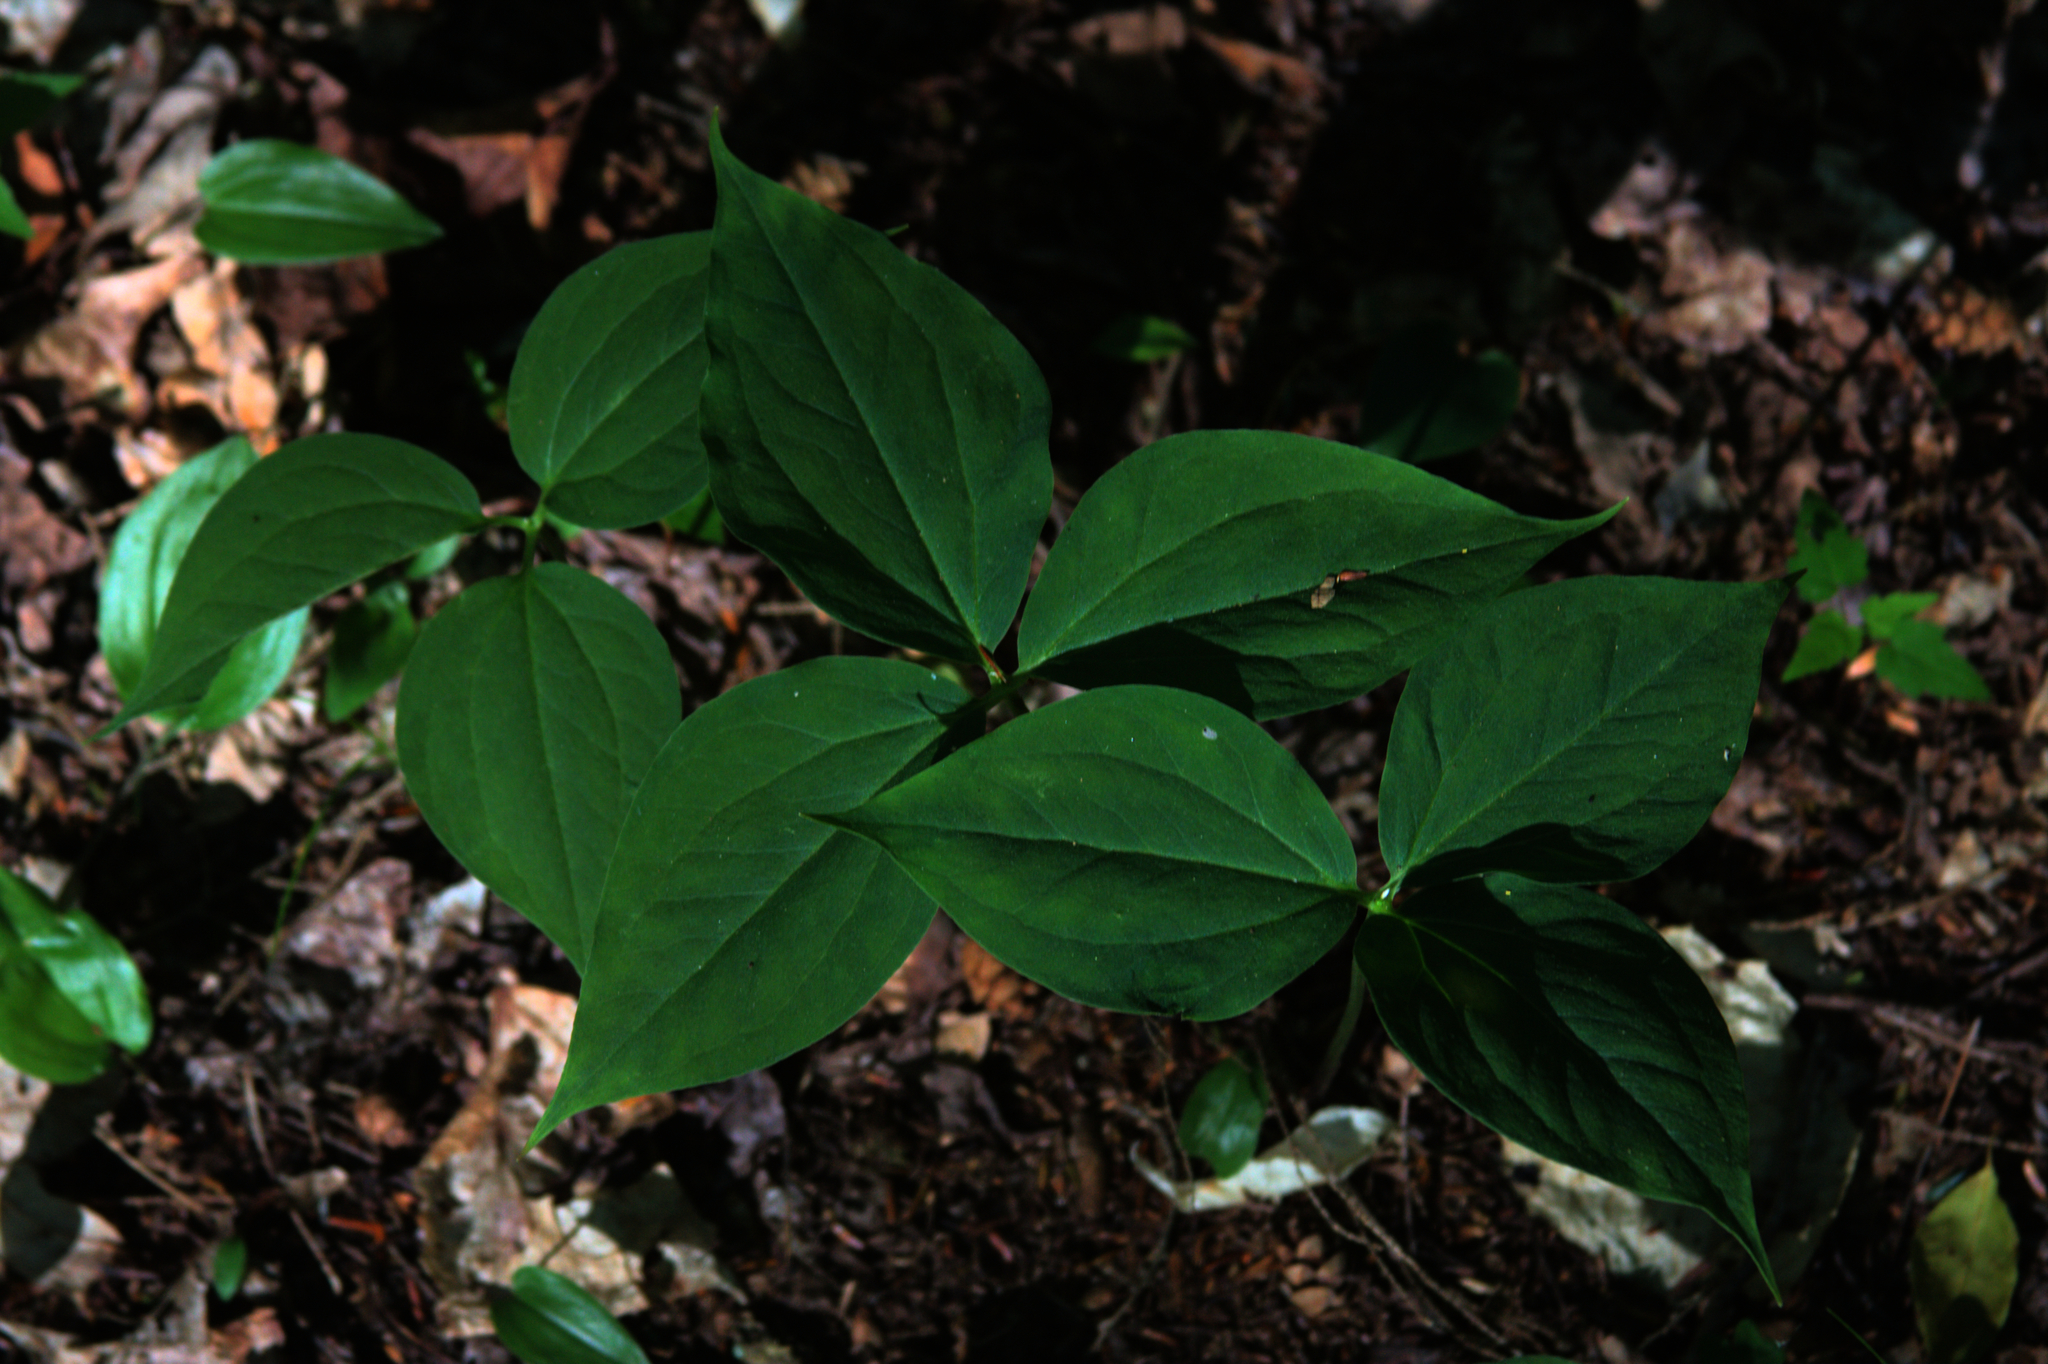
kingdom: Plantae
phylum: Tracheophyta
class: Liliopsida
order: Liliales
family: Melanthiaceae
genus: Trillium
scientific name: Trillium undulatum
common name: Paint trillium
